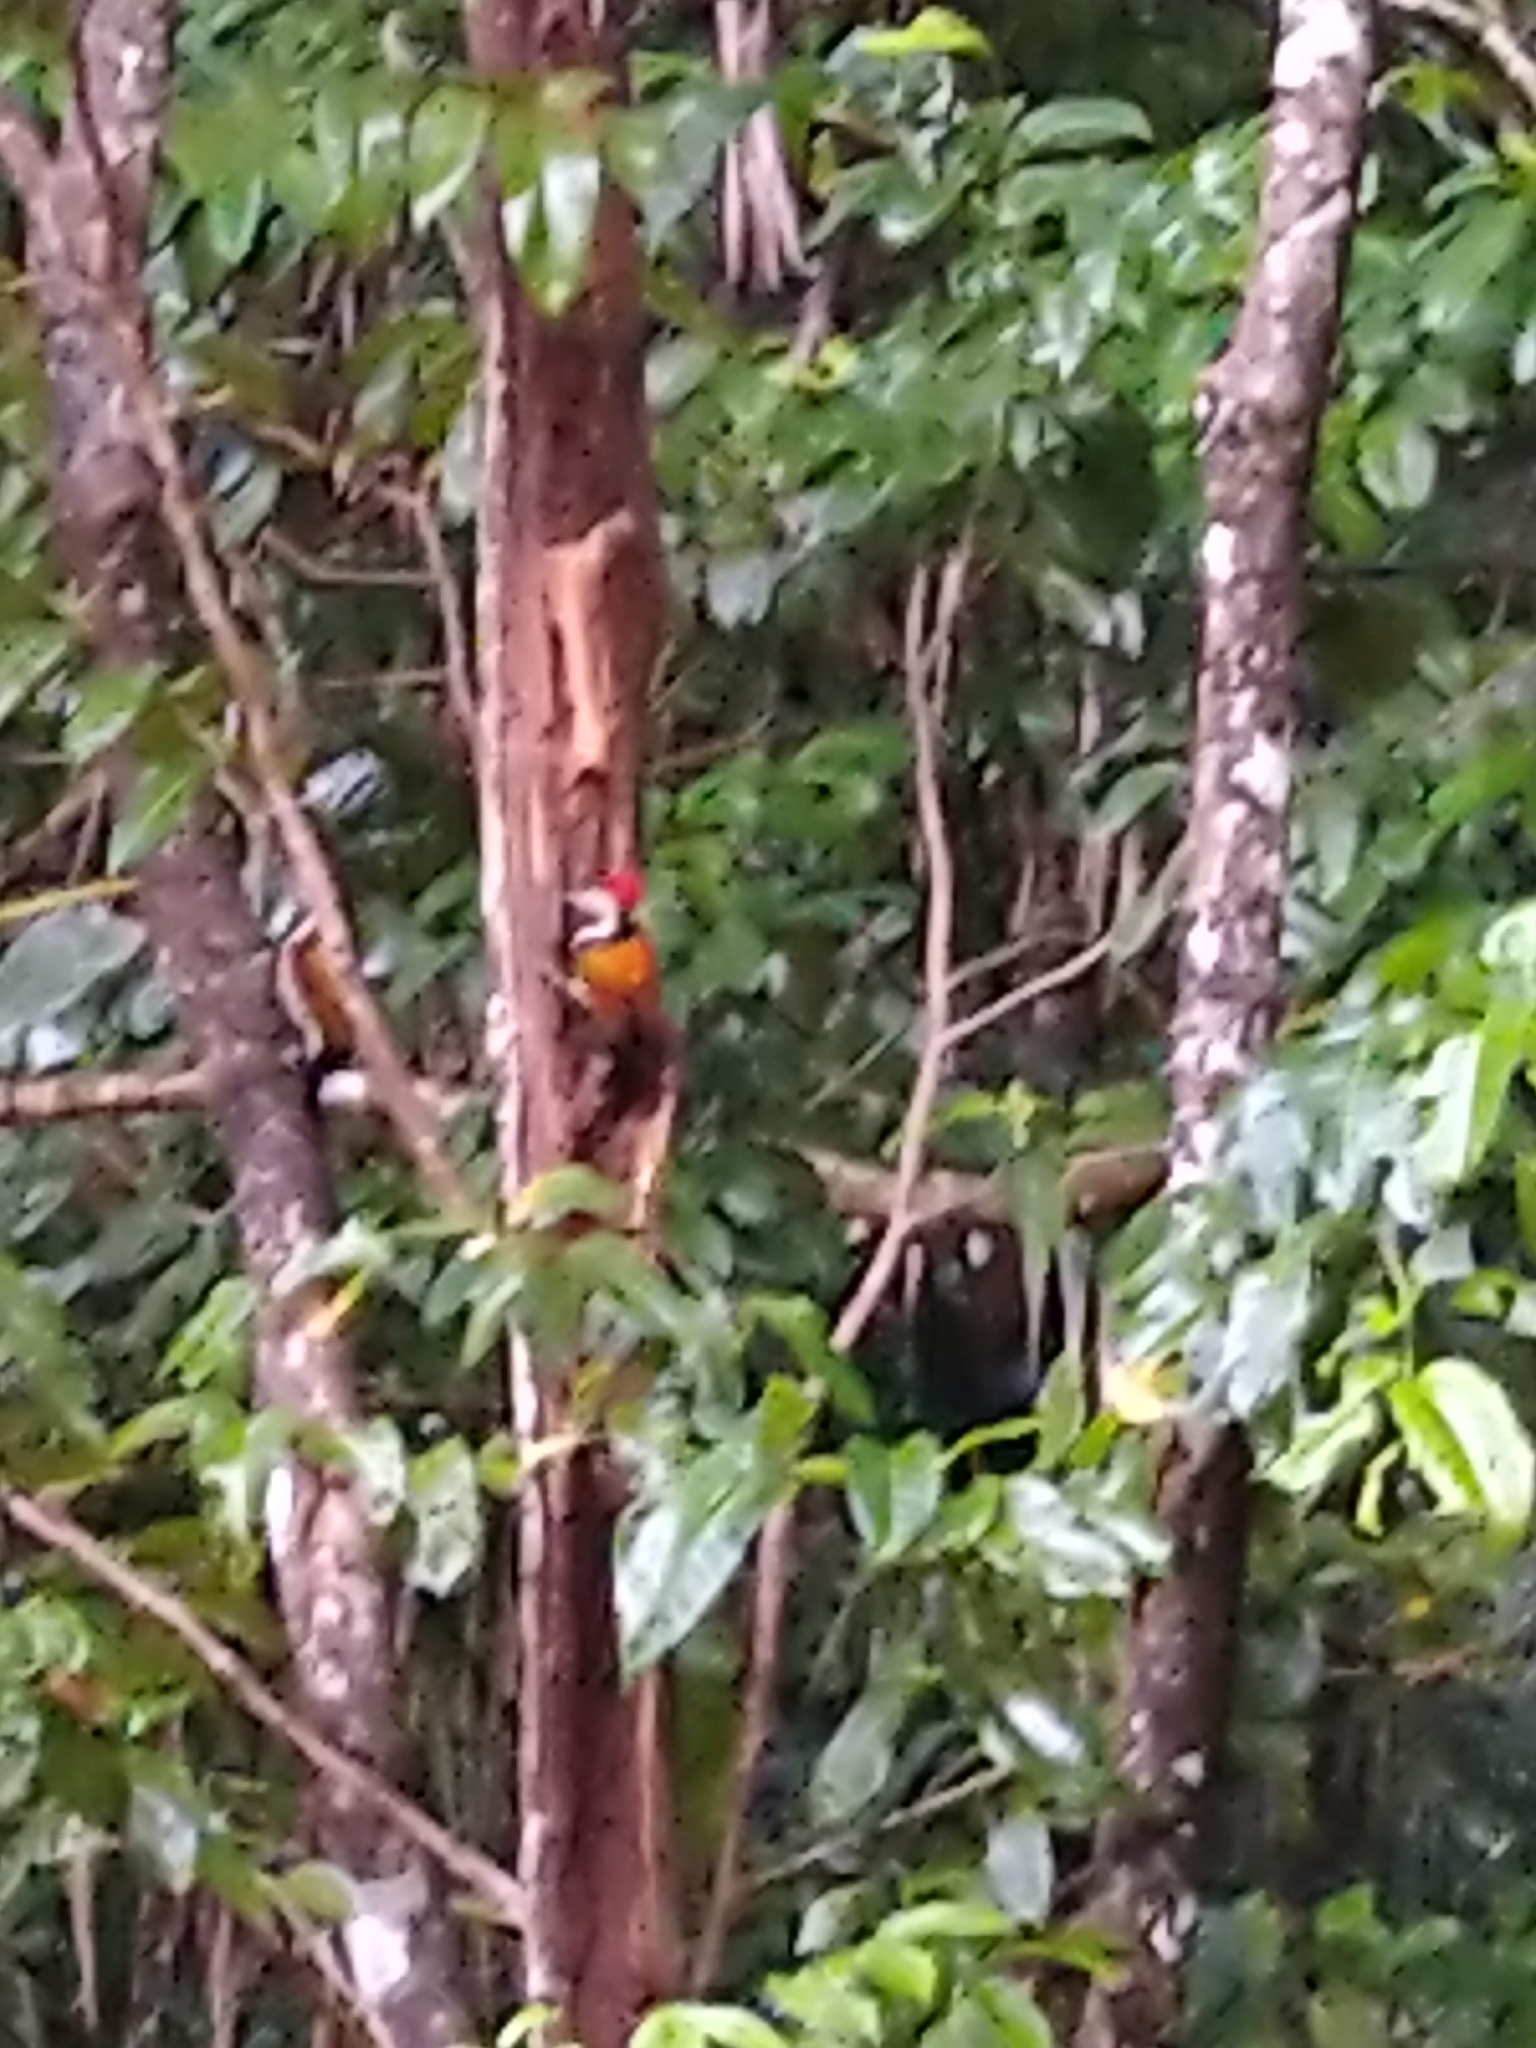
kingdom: Animalia
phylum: Chordata
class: Aves
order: Piciformes
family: Picidae
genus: Dinopium
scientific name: Dinopium benghalense
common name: Black-rumped flameback
